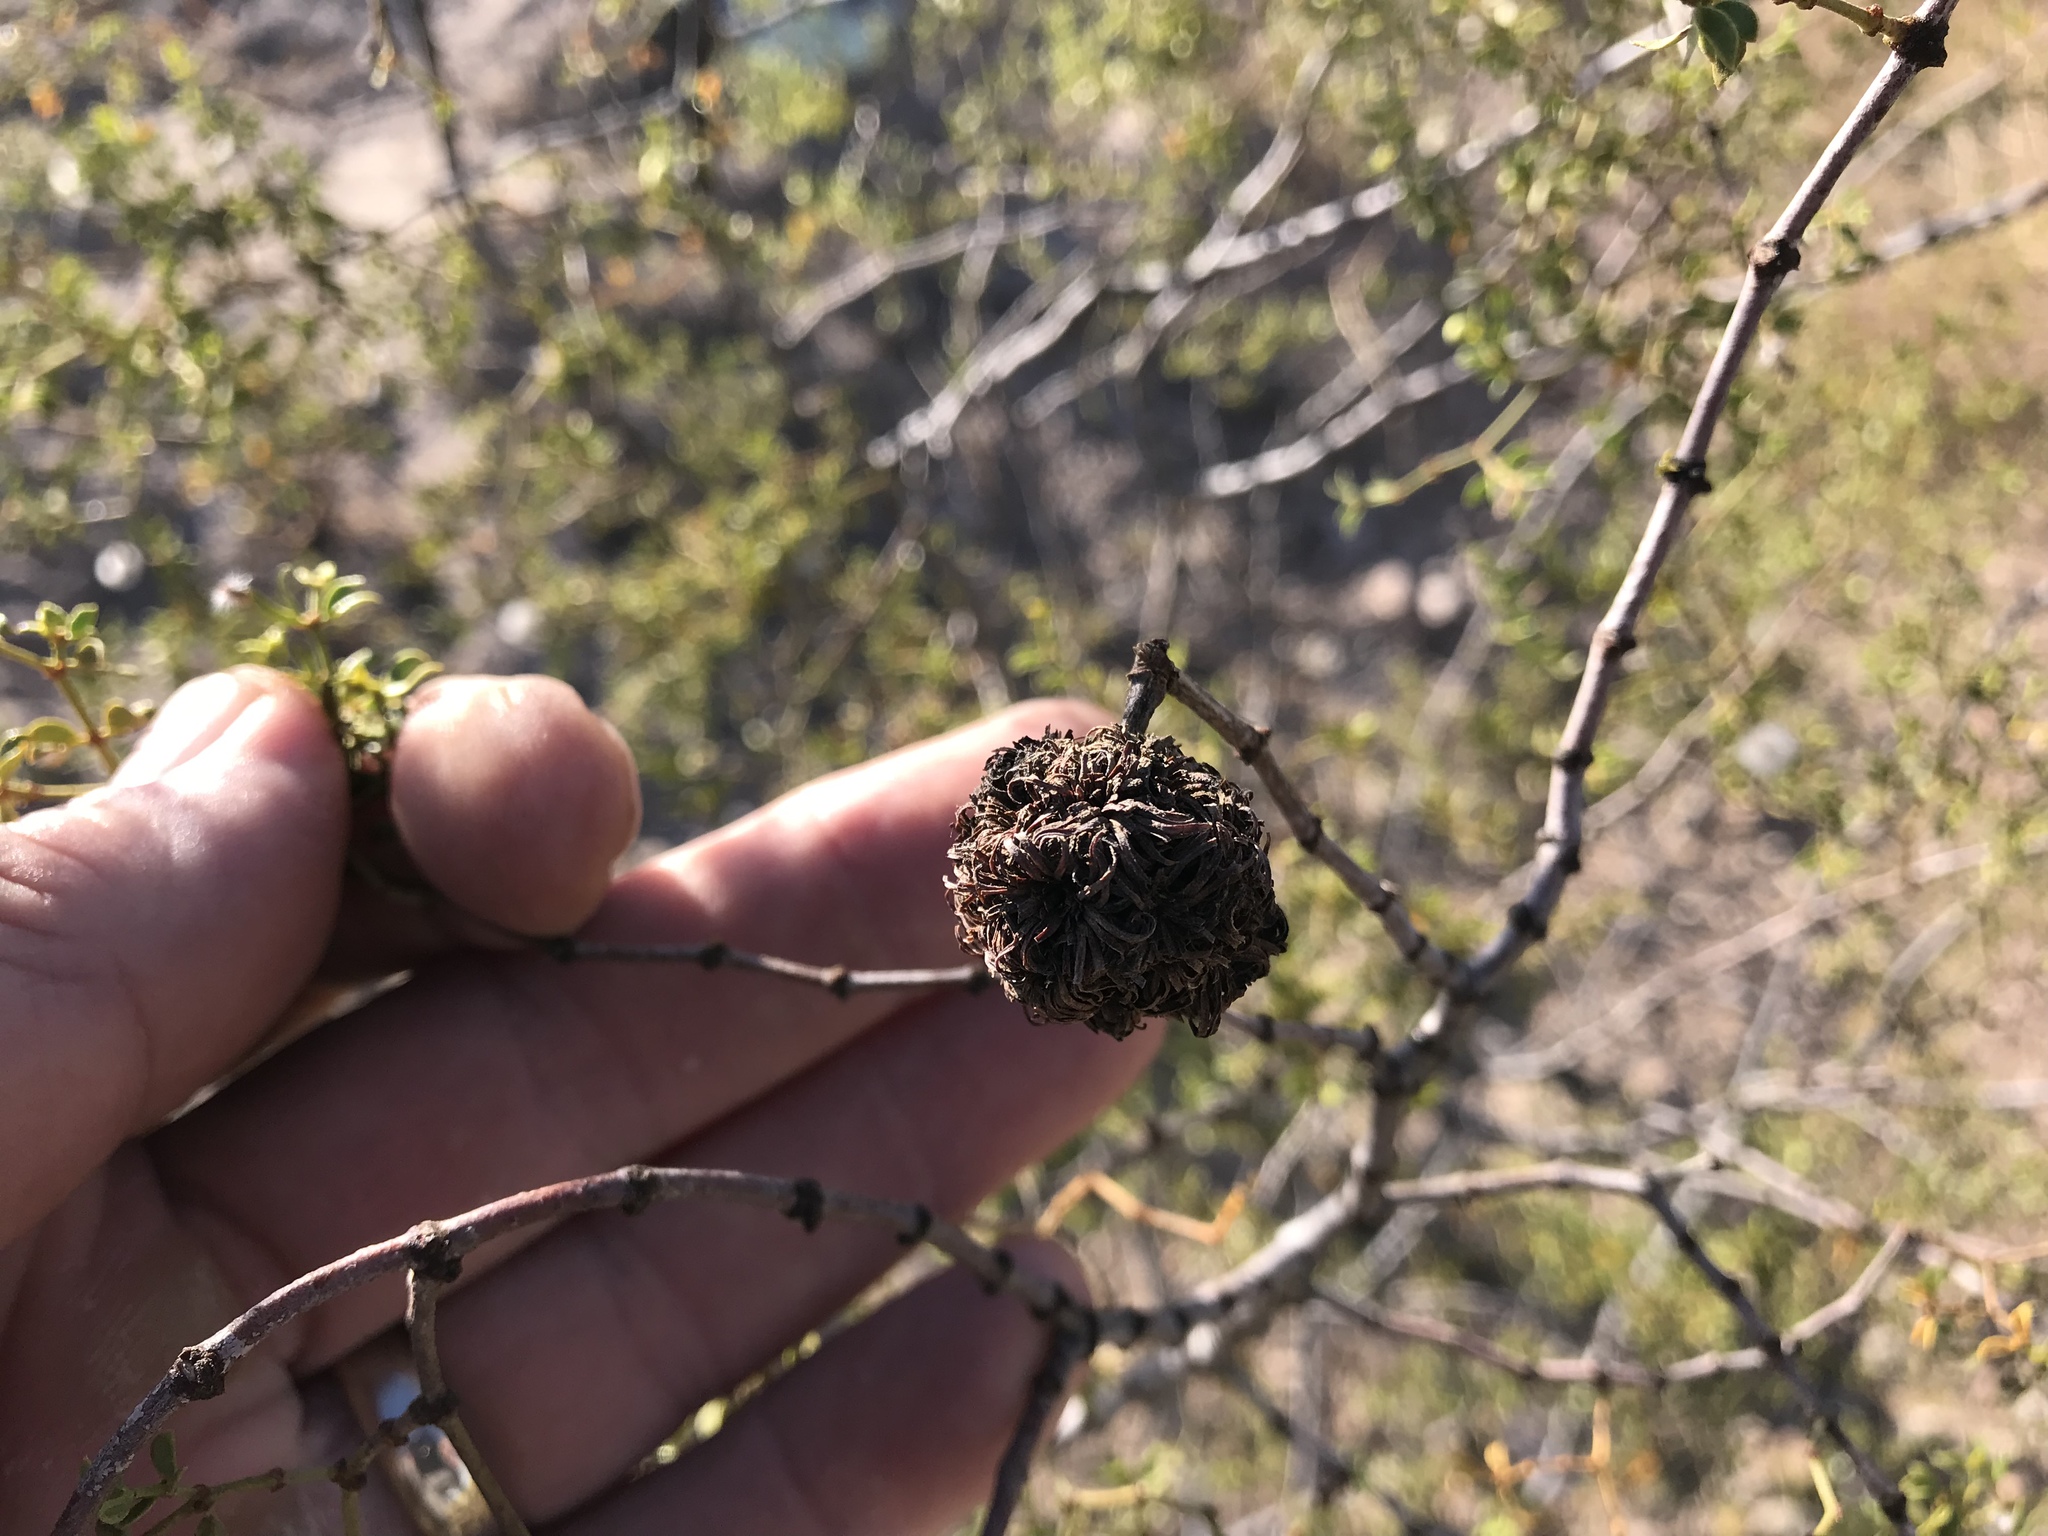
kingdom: Animalia
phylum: Arthropoda
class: Insecta
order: Diptera
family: Cecidomyiidae
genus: Asphondylia
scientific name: Asphondylia auripila
